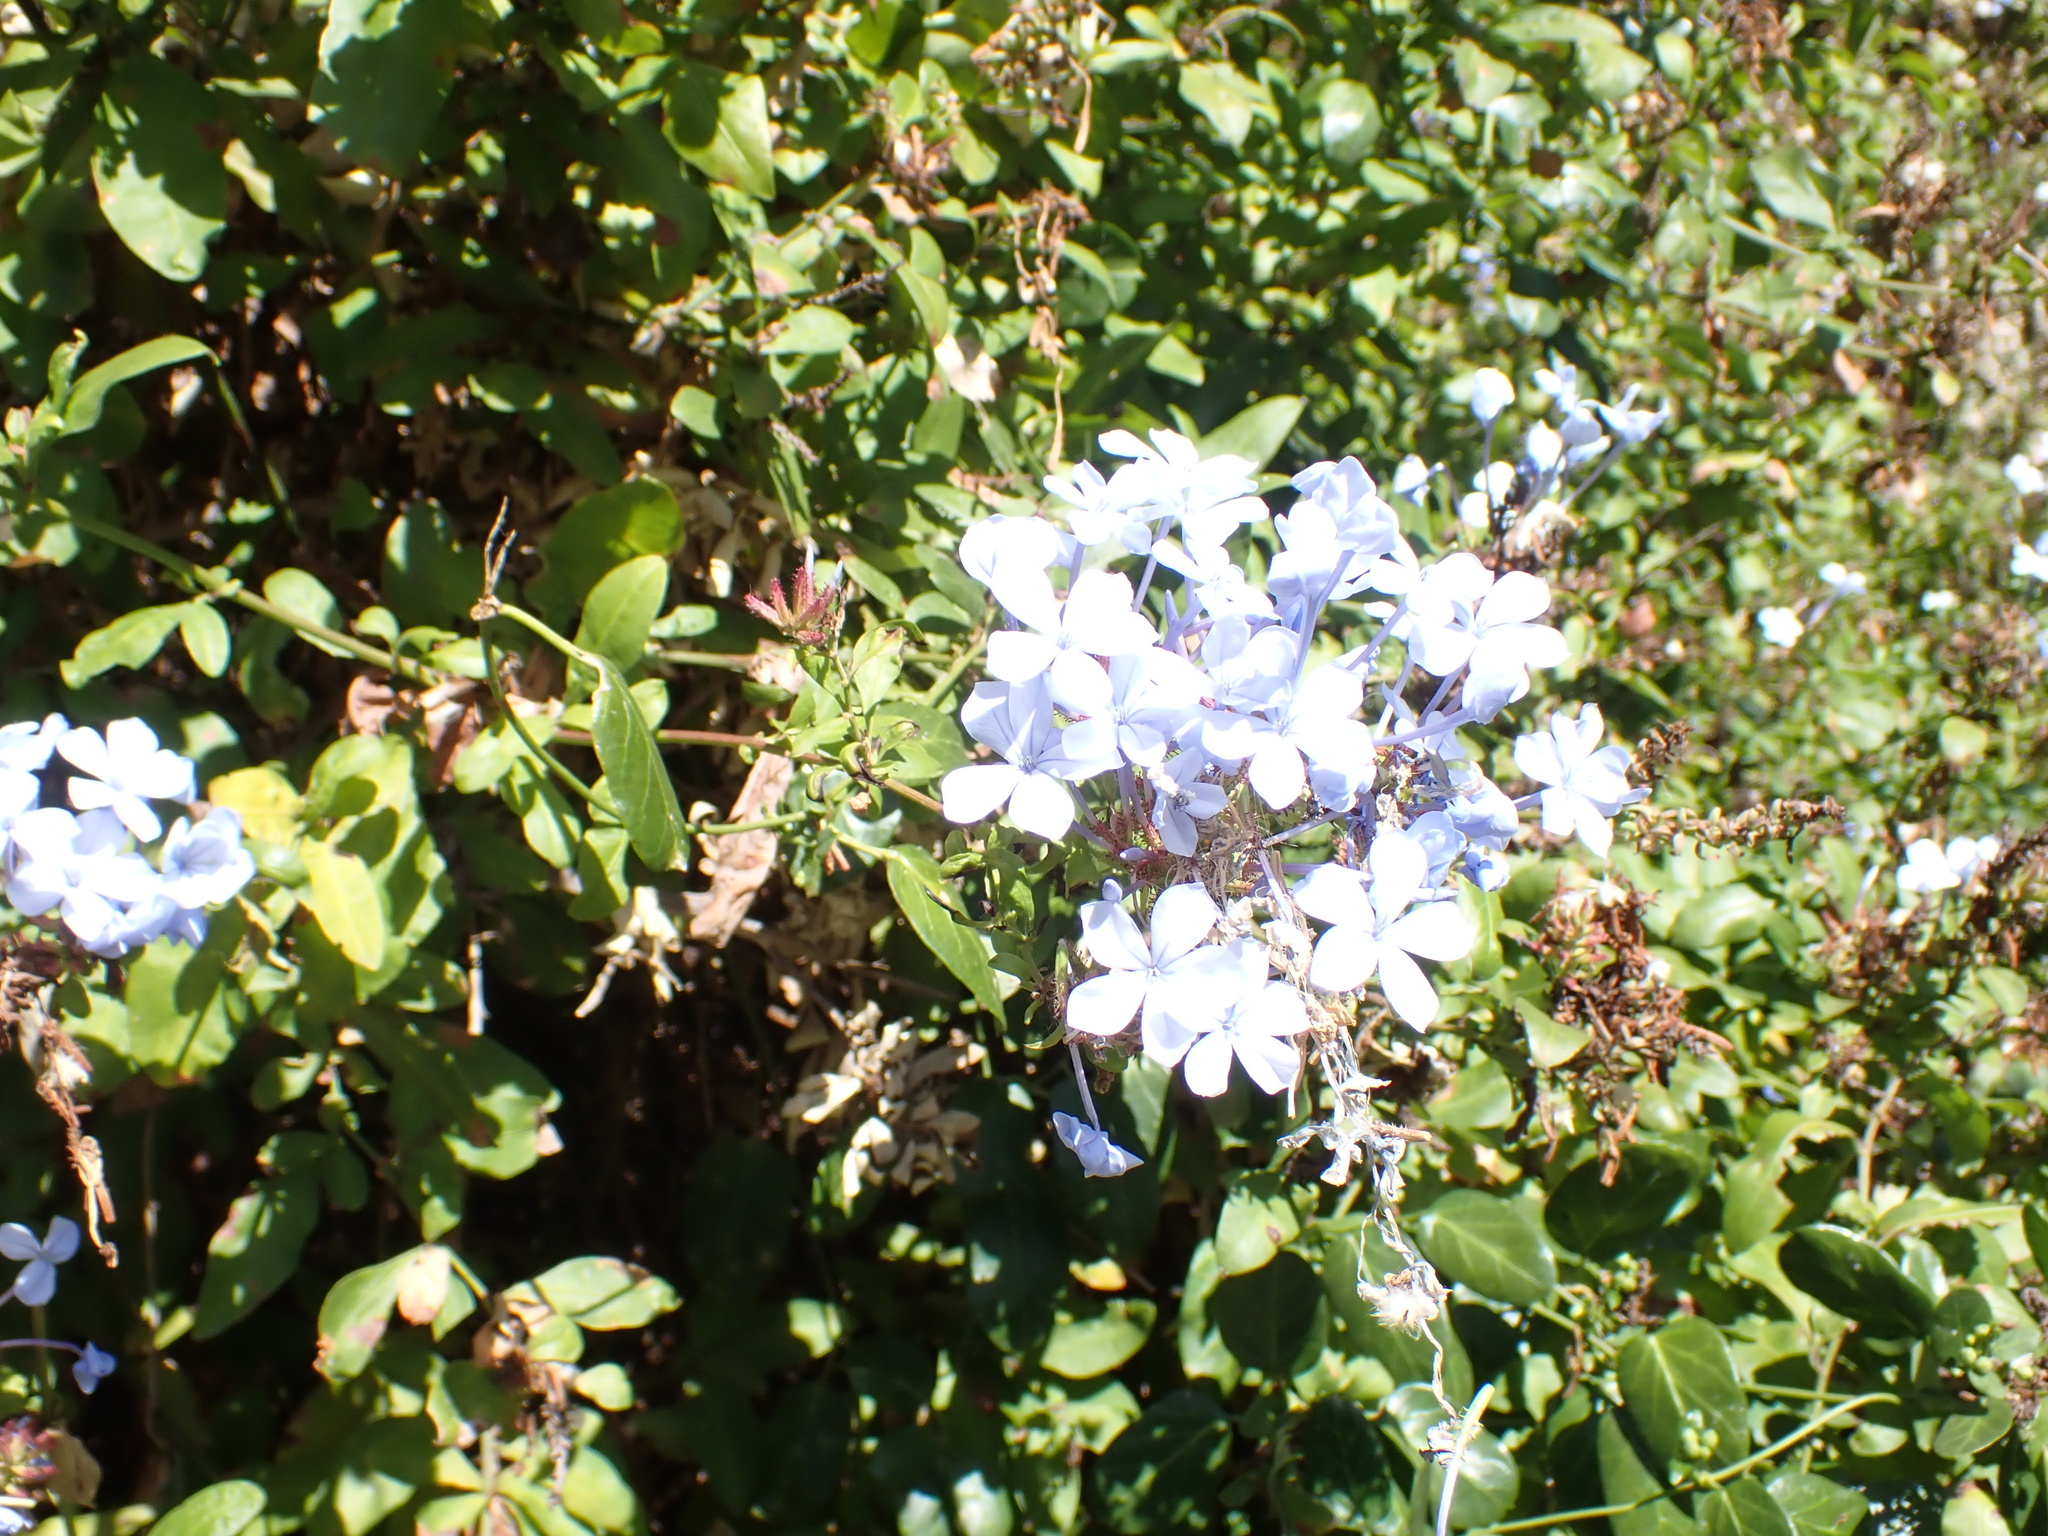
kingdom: Plantae
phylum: Tracheophyta
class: Magnoliopsida
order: Caryophyllales
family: Plumbaginaceae
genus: Plumbago
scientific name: Plumbago auriculata
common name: Cape leadwort
